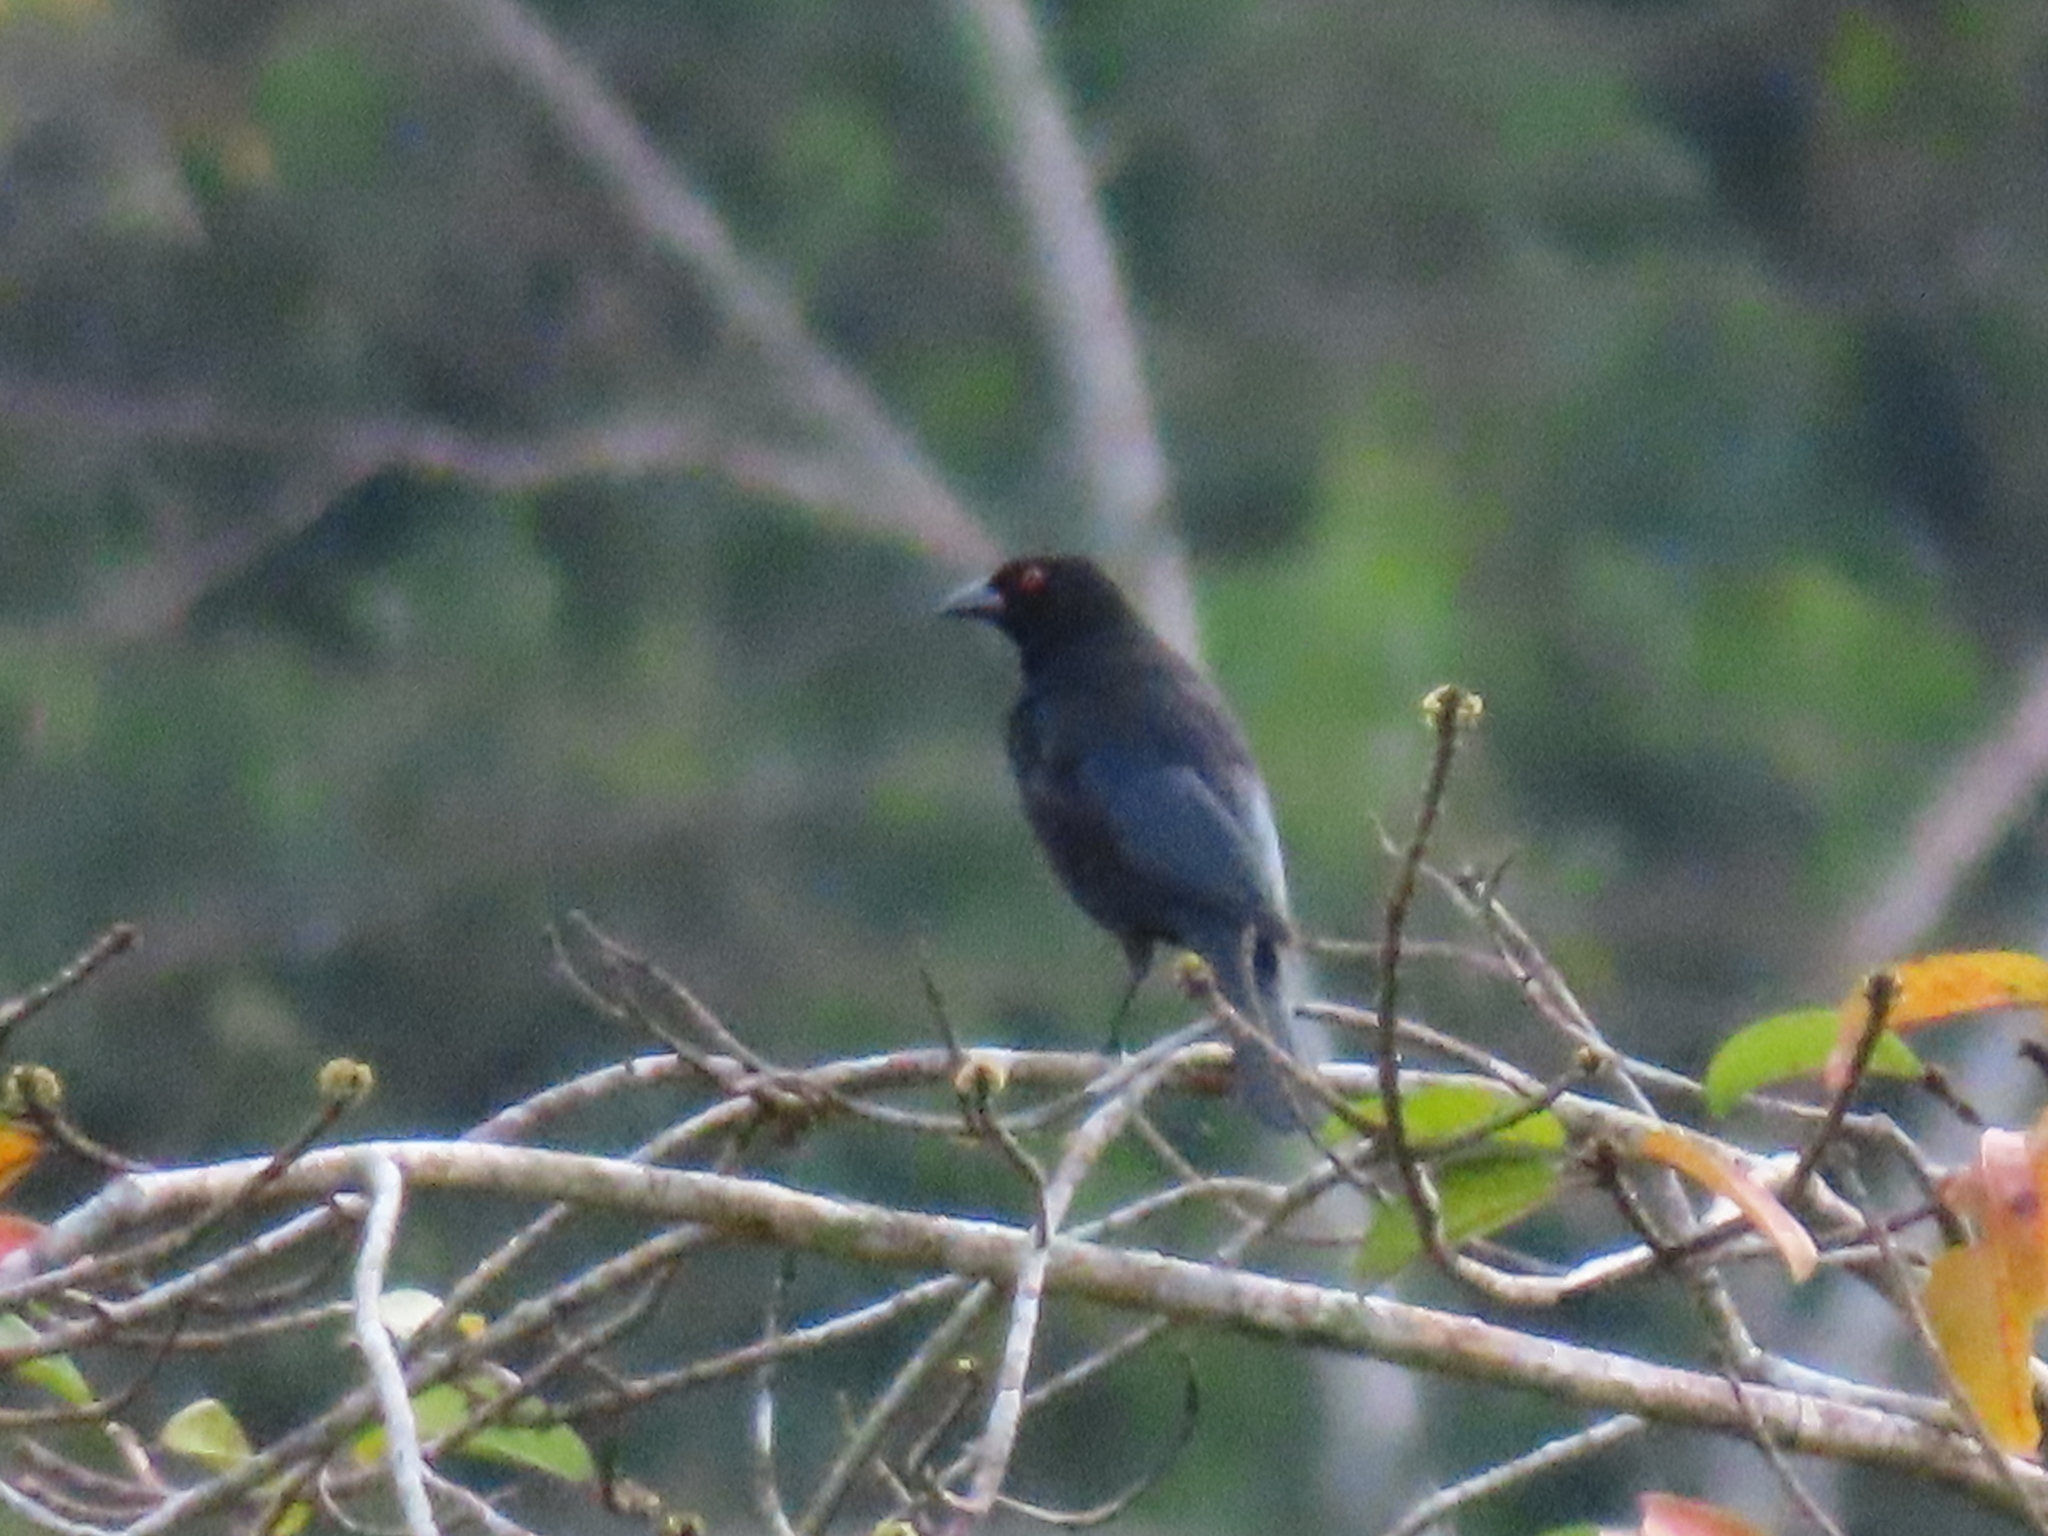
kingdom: Animalia
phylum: Chordata
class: Aves
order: Passeriformes
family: Icteridae
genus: Molothrus
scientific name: Molothrus aeneus
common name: Bronzed cowbird
